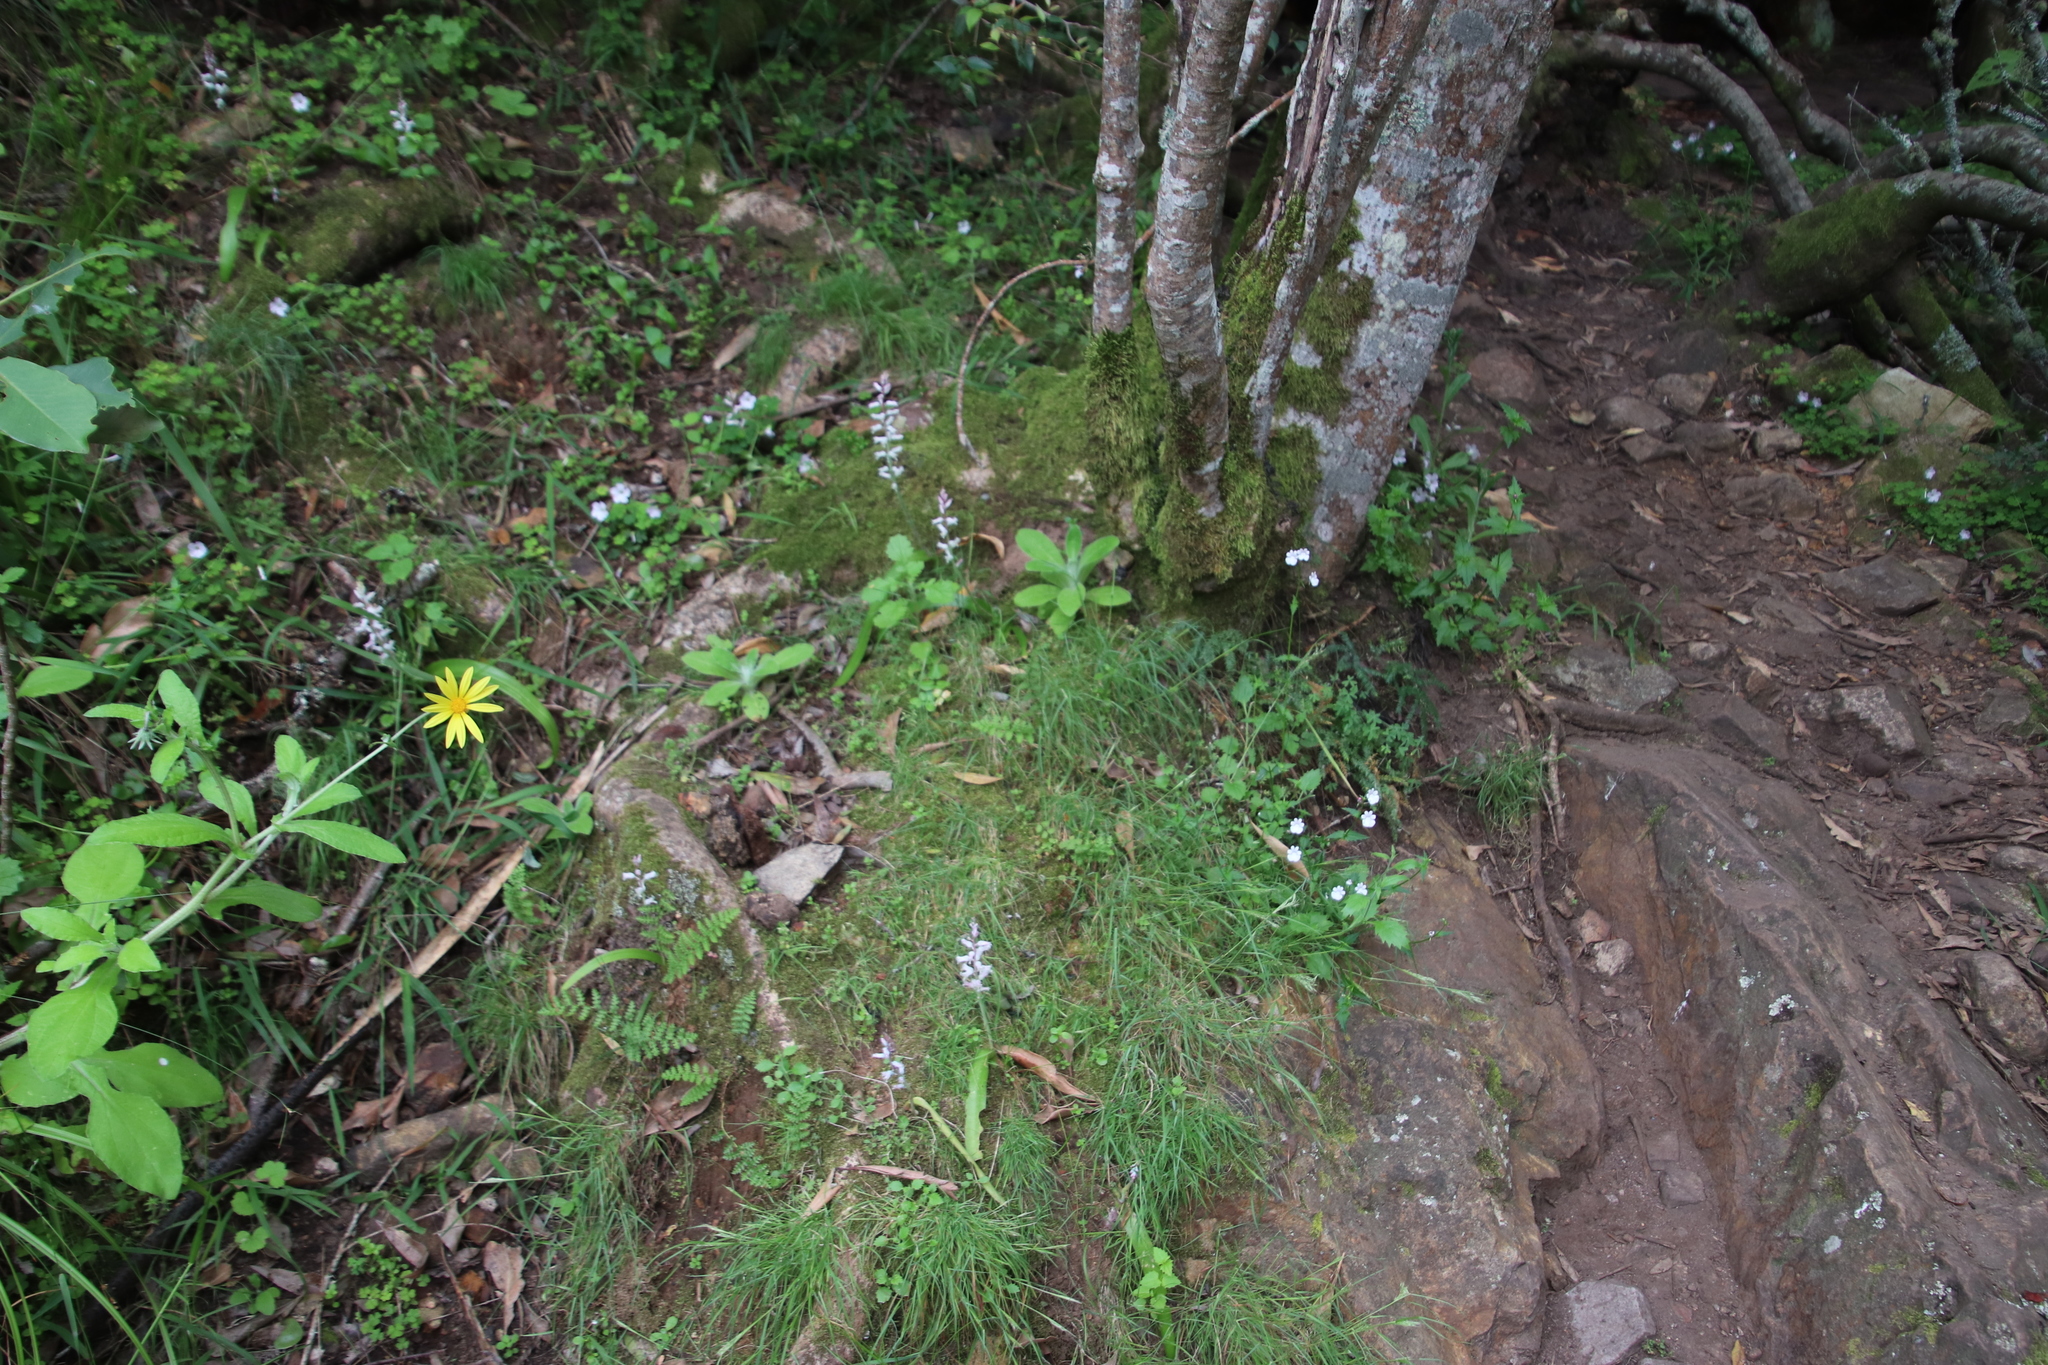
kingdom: Plantae
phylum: Tracheophyta
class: Liliopsida
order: Asparagales
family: Asparagaceae
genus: Lachenalia
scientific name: Lachenalia rosea
